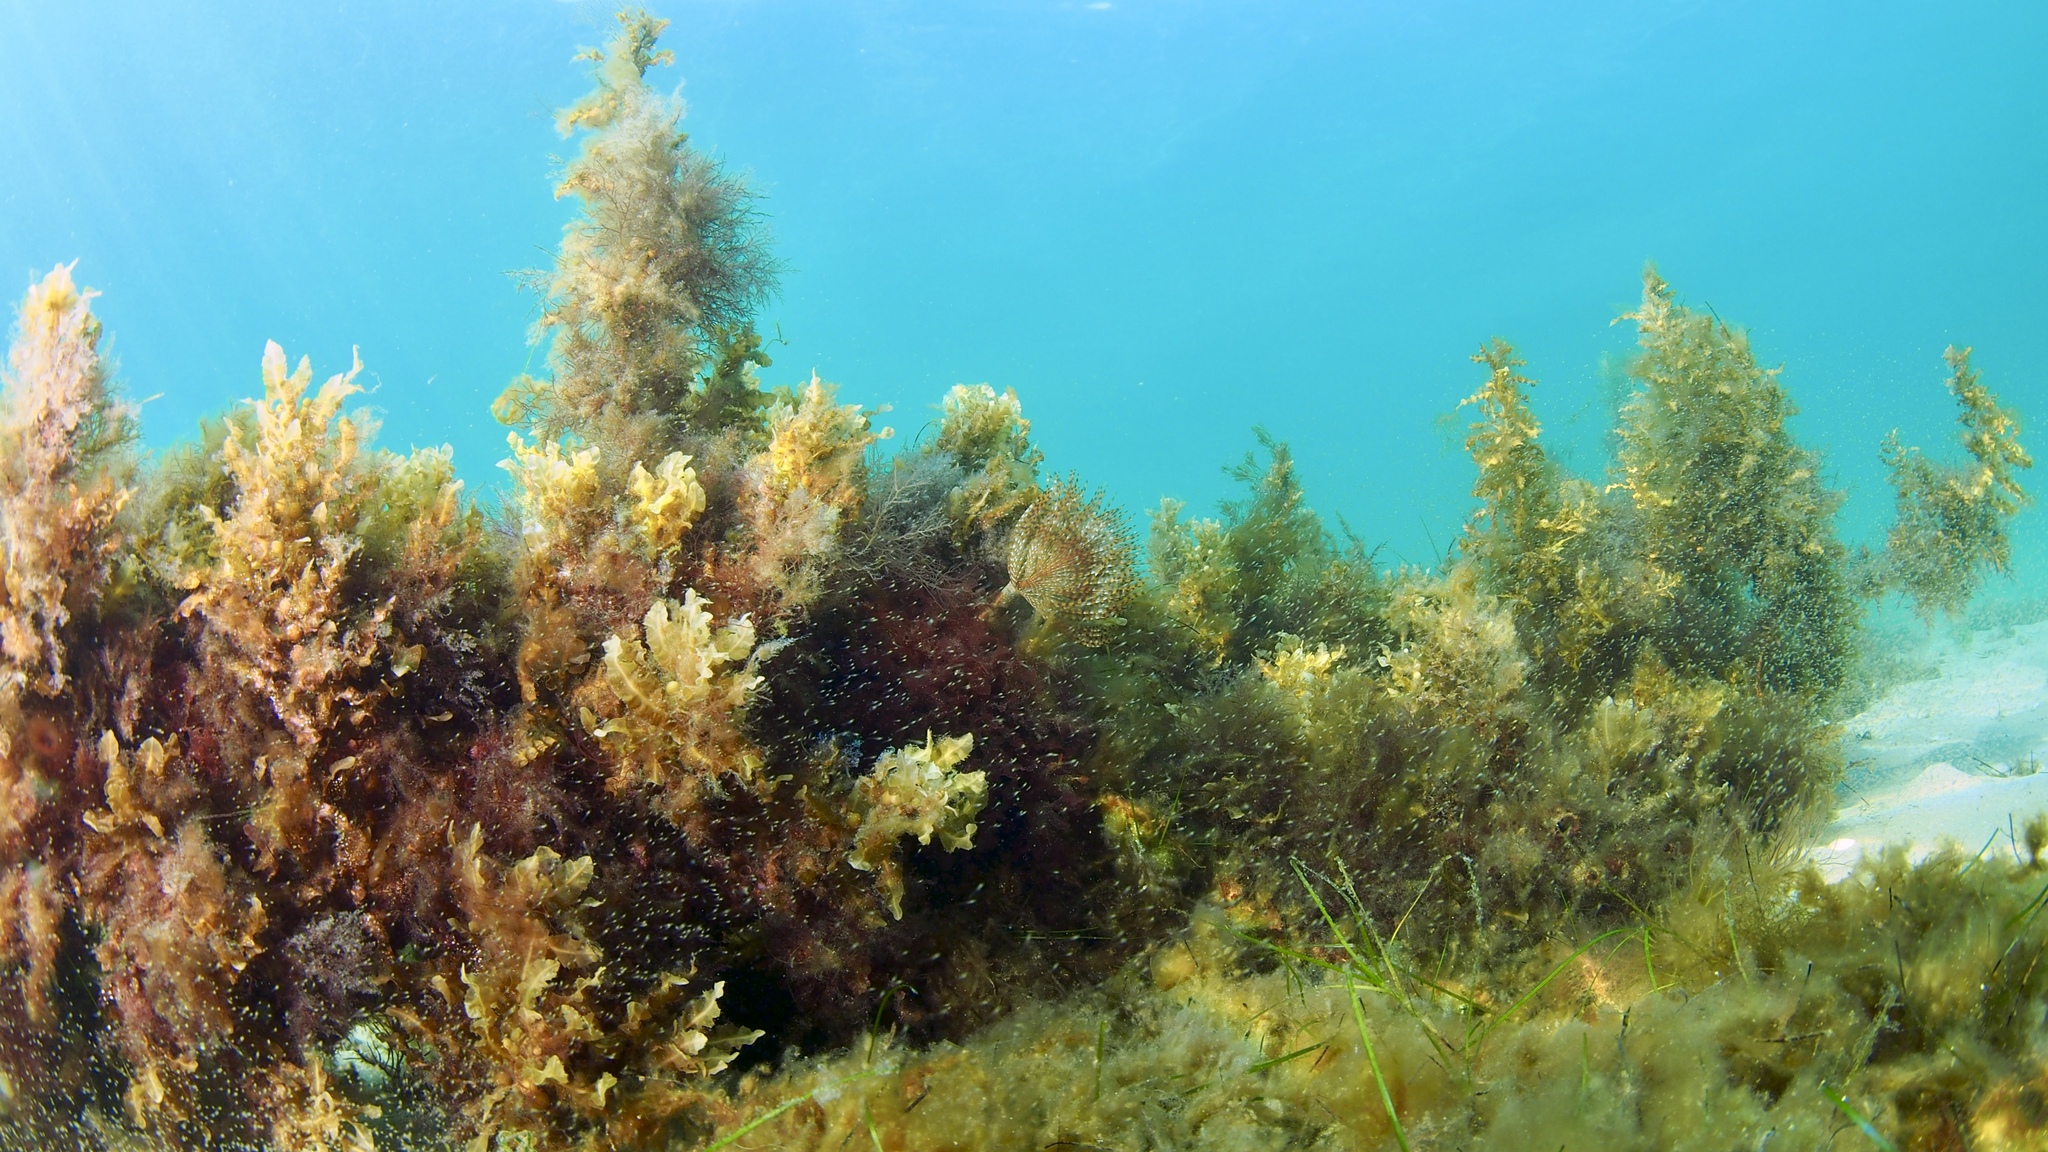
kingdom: Animalia
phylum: Annelida
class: Polychaeta
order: Sabellida
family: Sabellidae
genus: Sabella
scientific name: Sabella spallanzanii
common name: Feather duster worm
